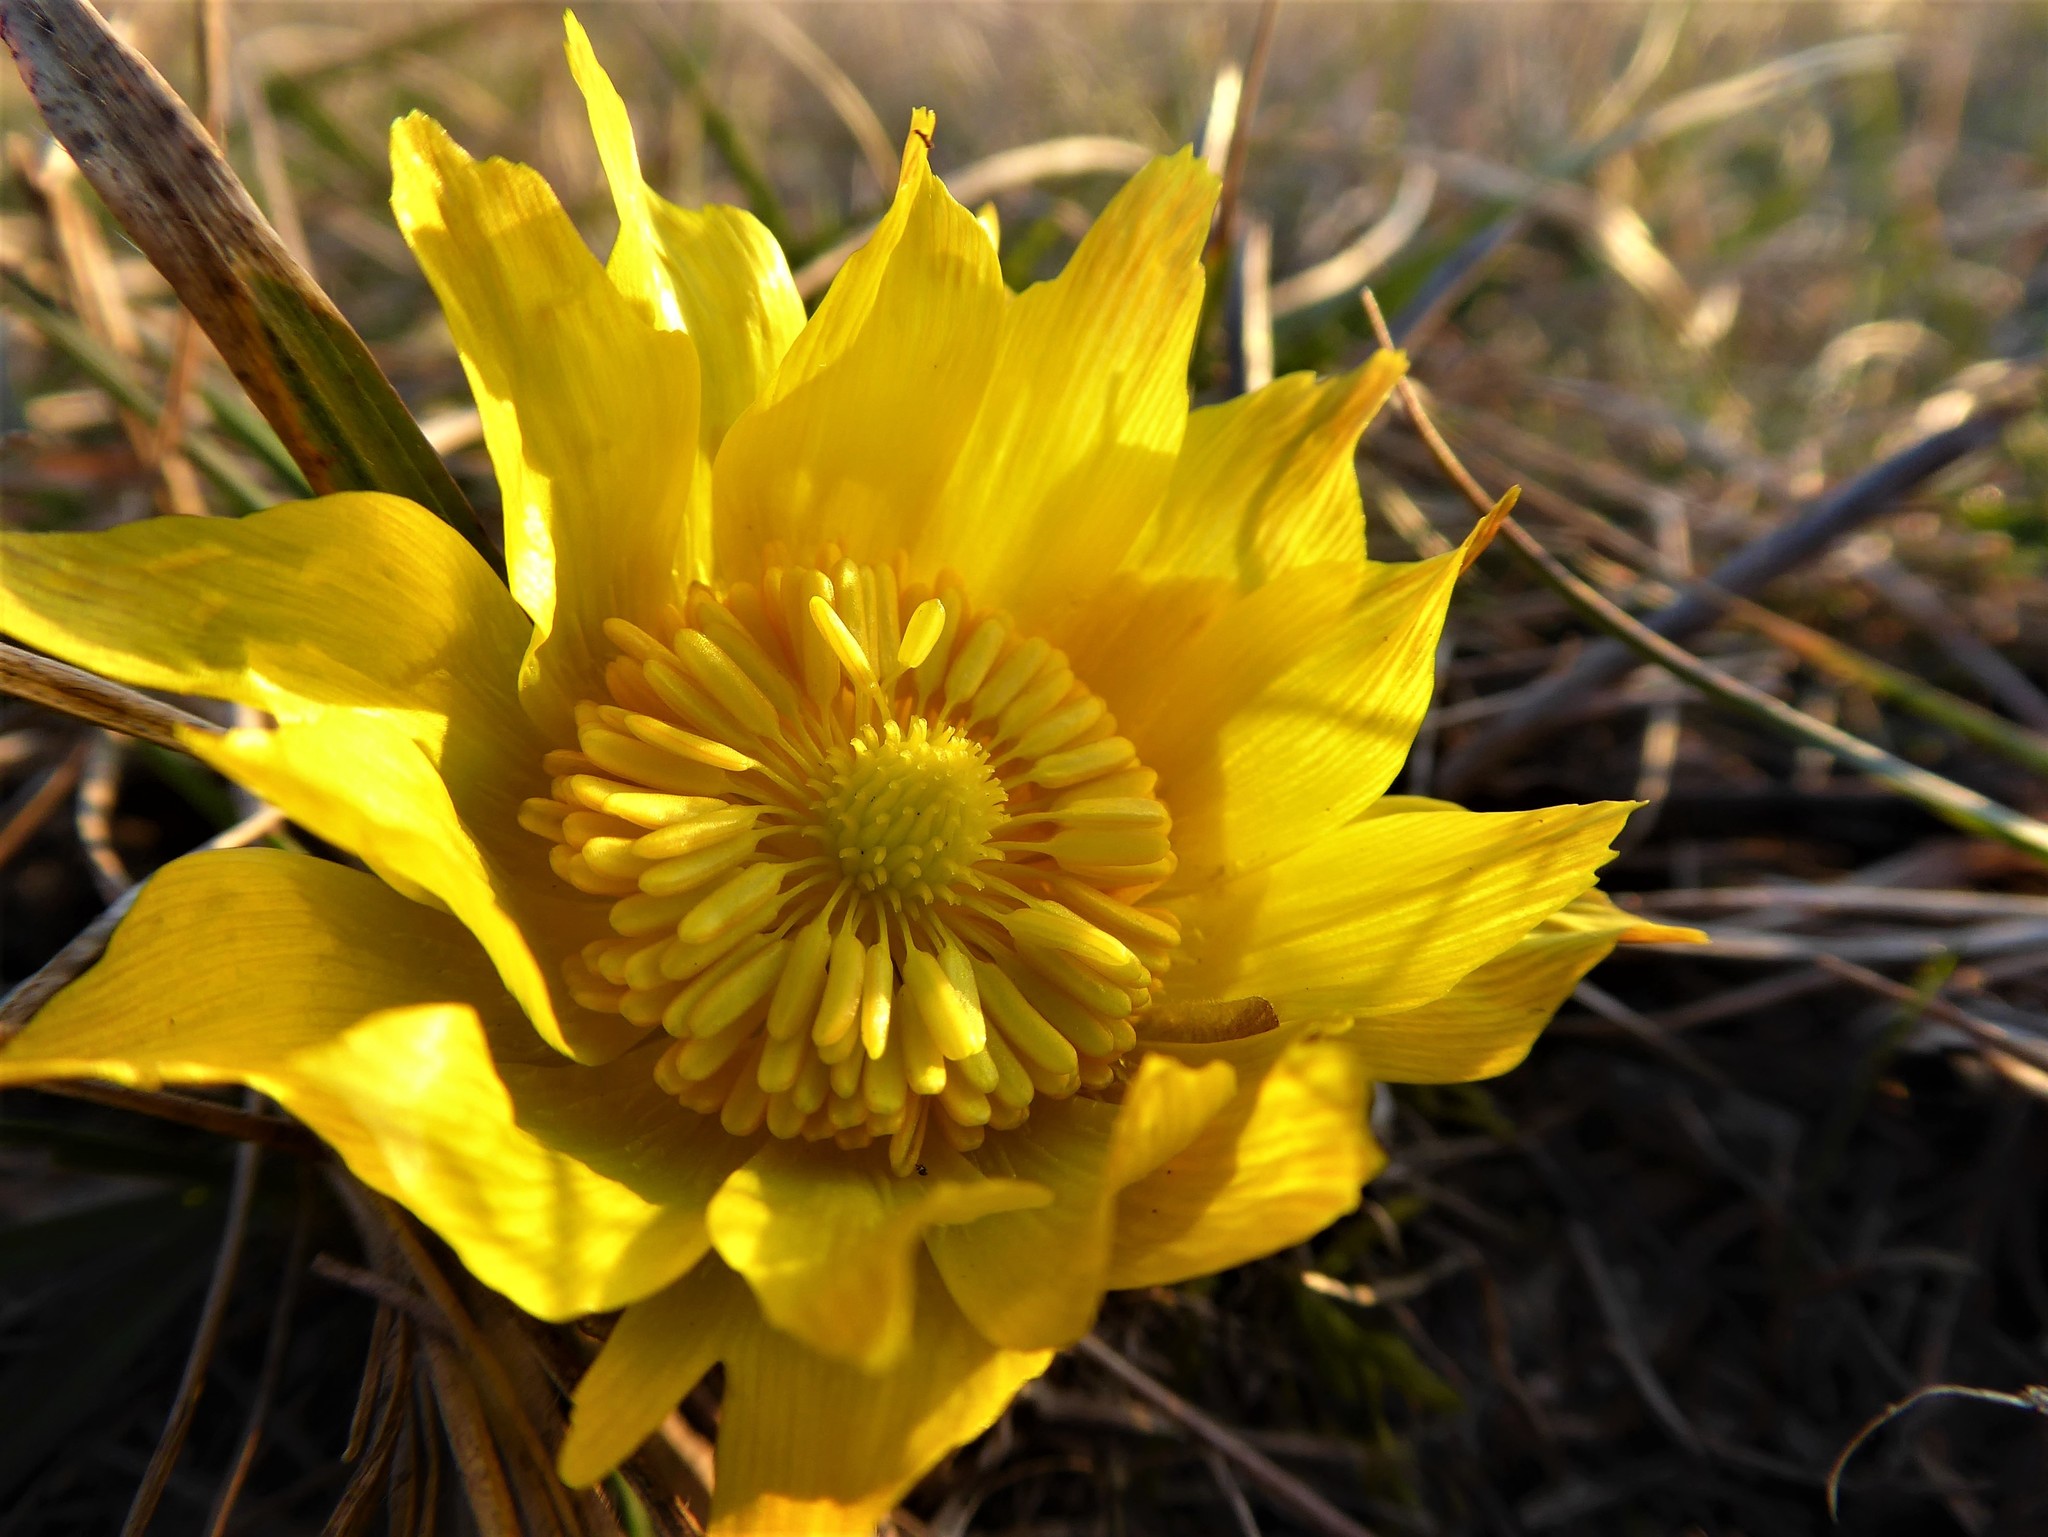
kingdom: Plantae
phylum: Tracheophyta
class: Magnoliopsida
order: Ranunculales
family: Ranunculaceae
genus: Adonis
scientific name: Adonis vernalis
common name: Yellow pheasants-eye
